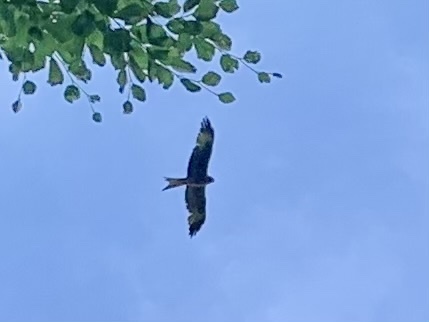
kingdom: Animalia
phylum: Chordata
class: Aves
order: Accipitriformes
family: Accipitridae
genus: Milvus
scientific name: Milvus milvus
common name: Red kite
